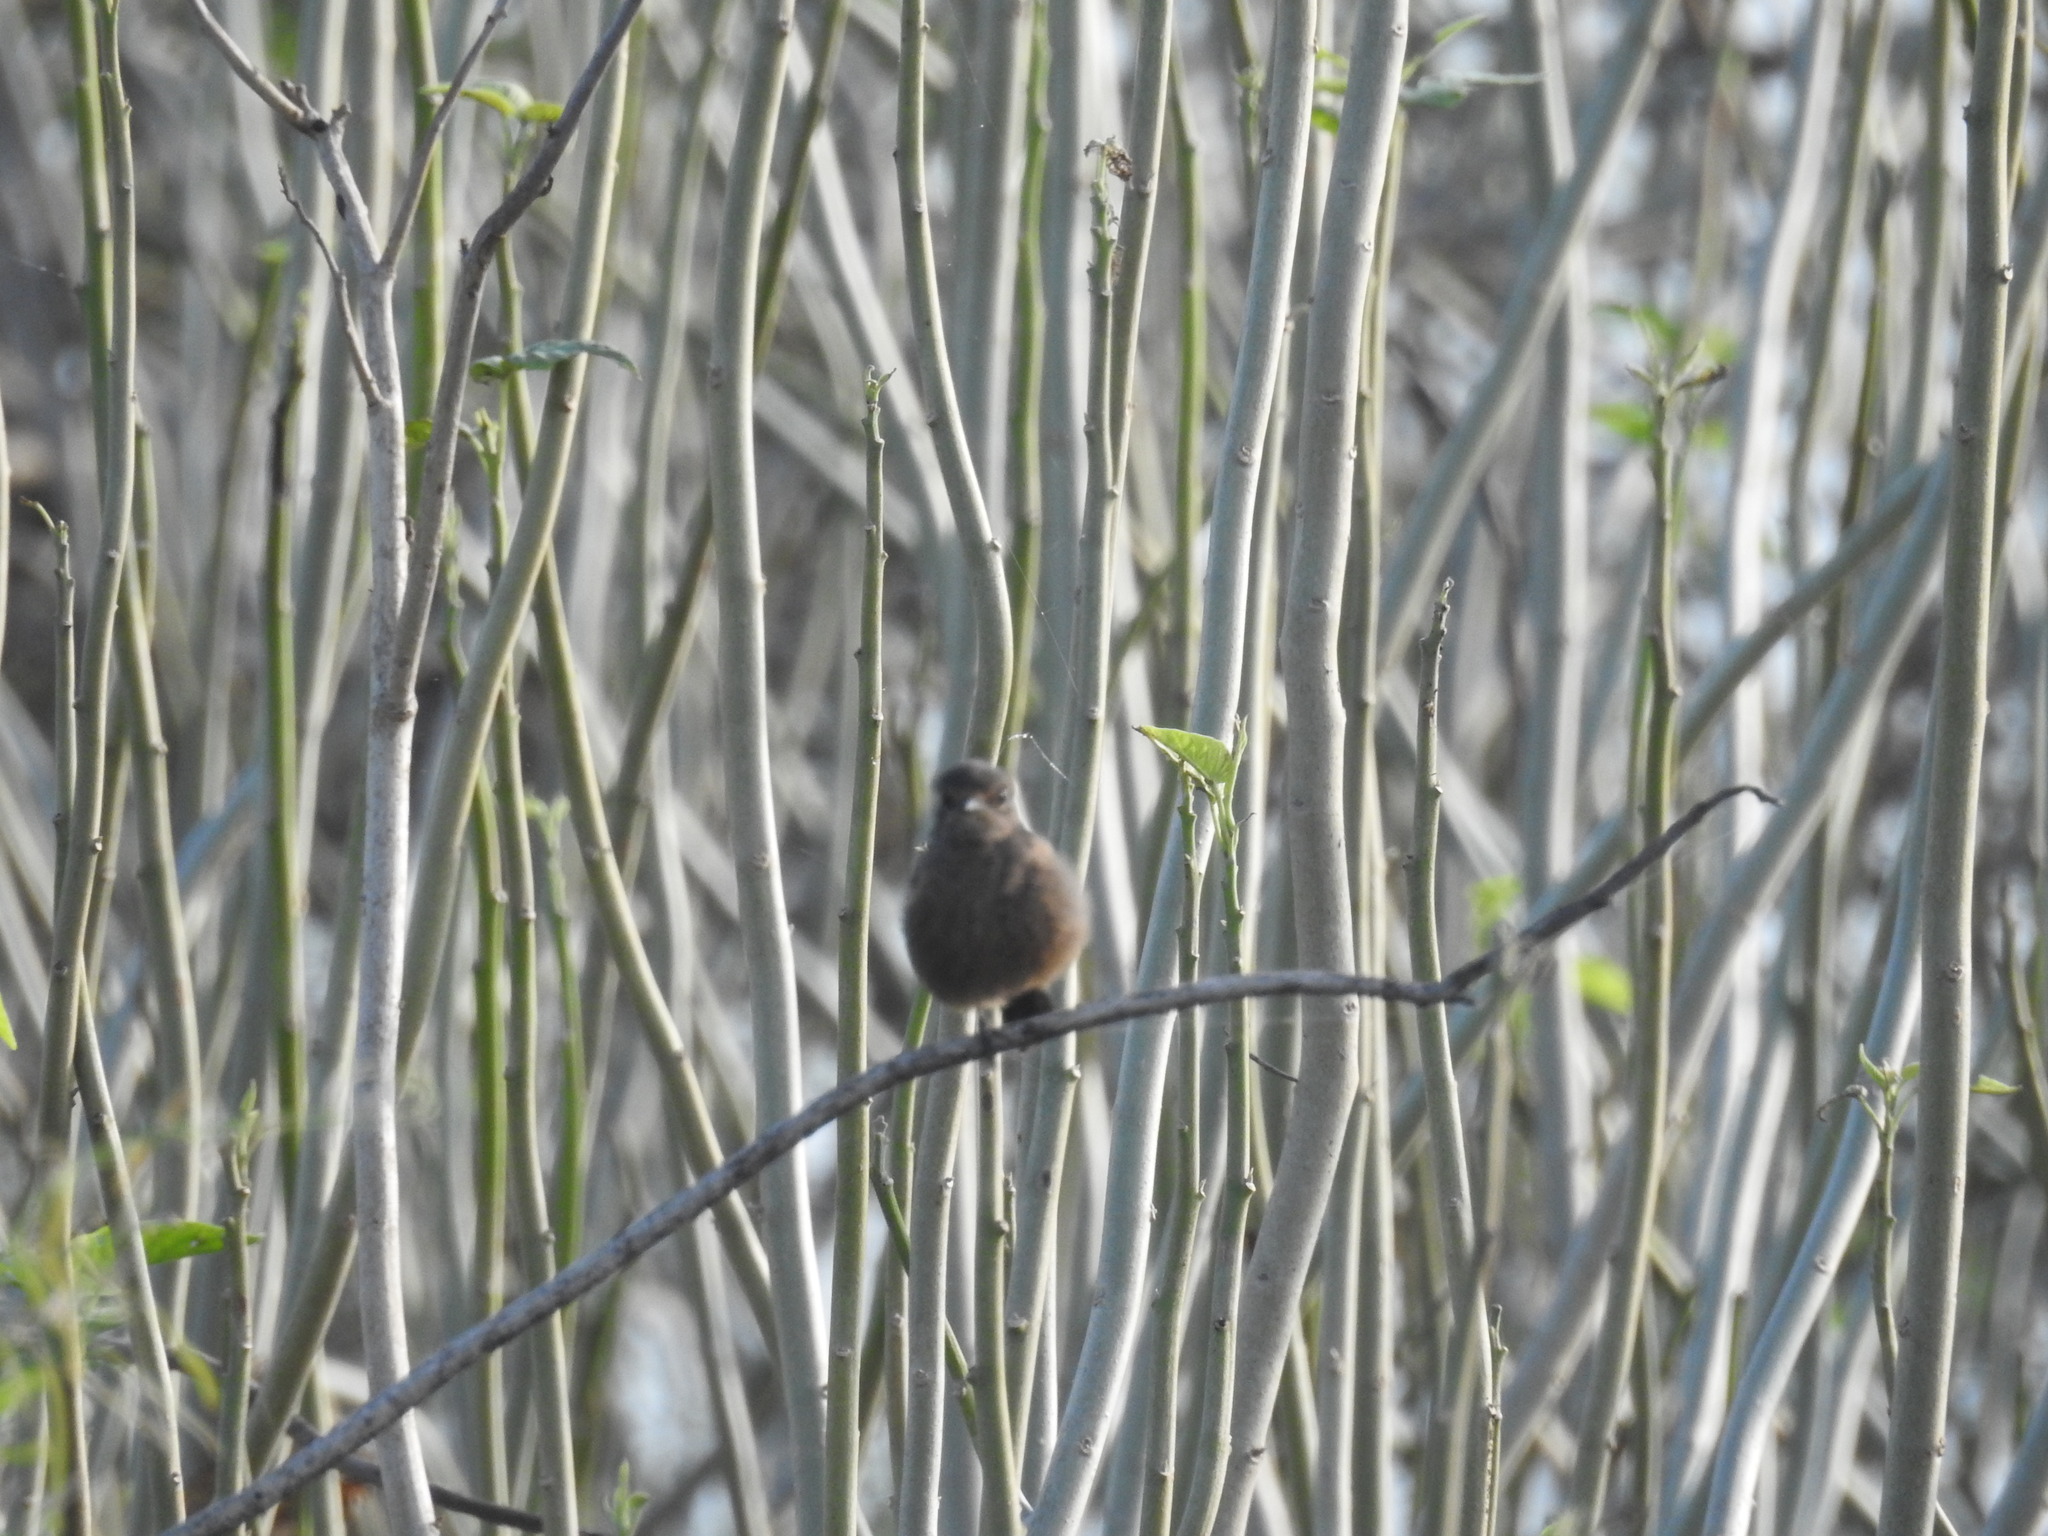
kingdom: Animalia
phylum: Chordata
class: Aves
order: Passeriformes
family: Muscicapidae
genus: Saxicola
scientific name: Saxicola caprata
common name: Pied bush chat
